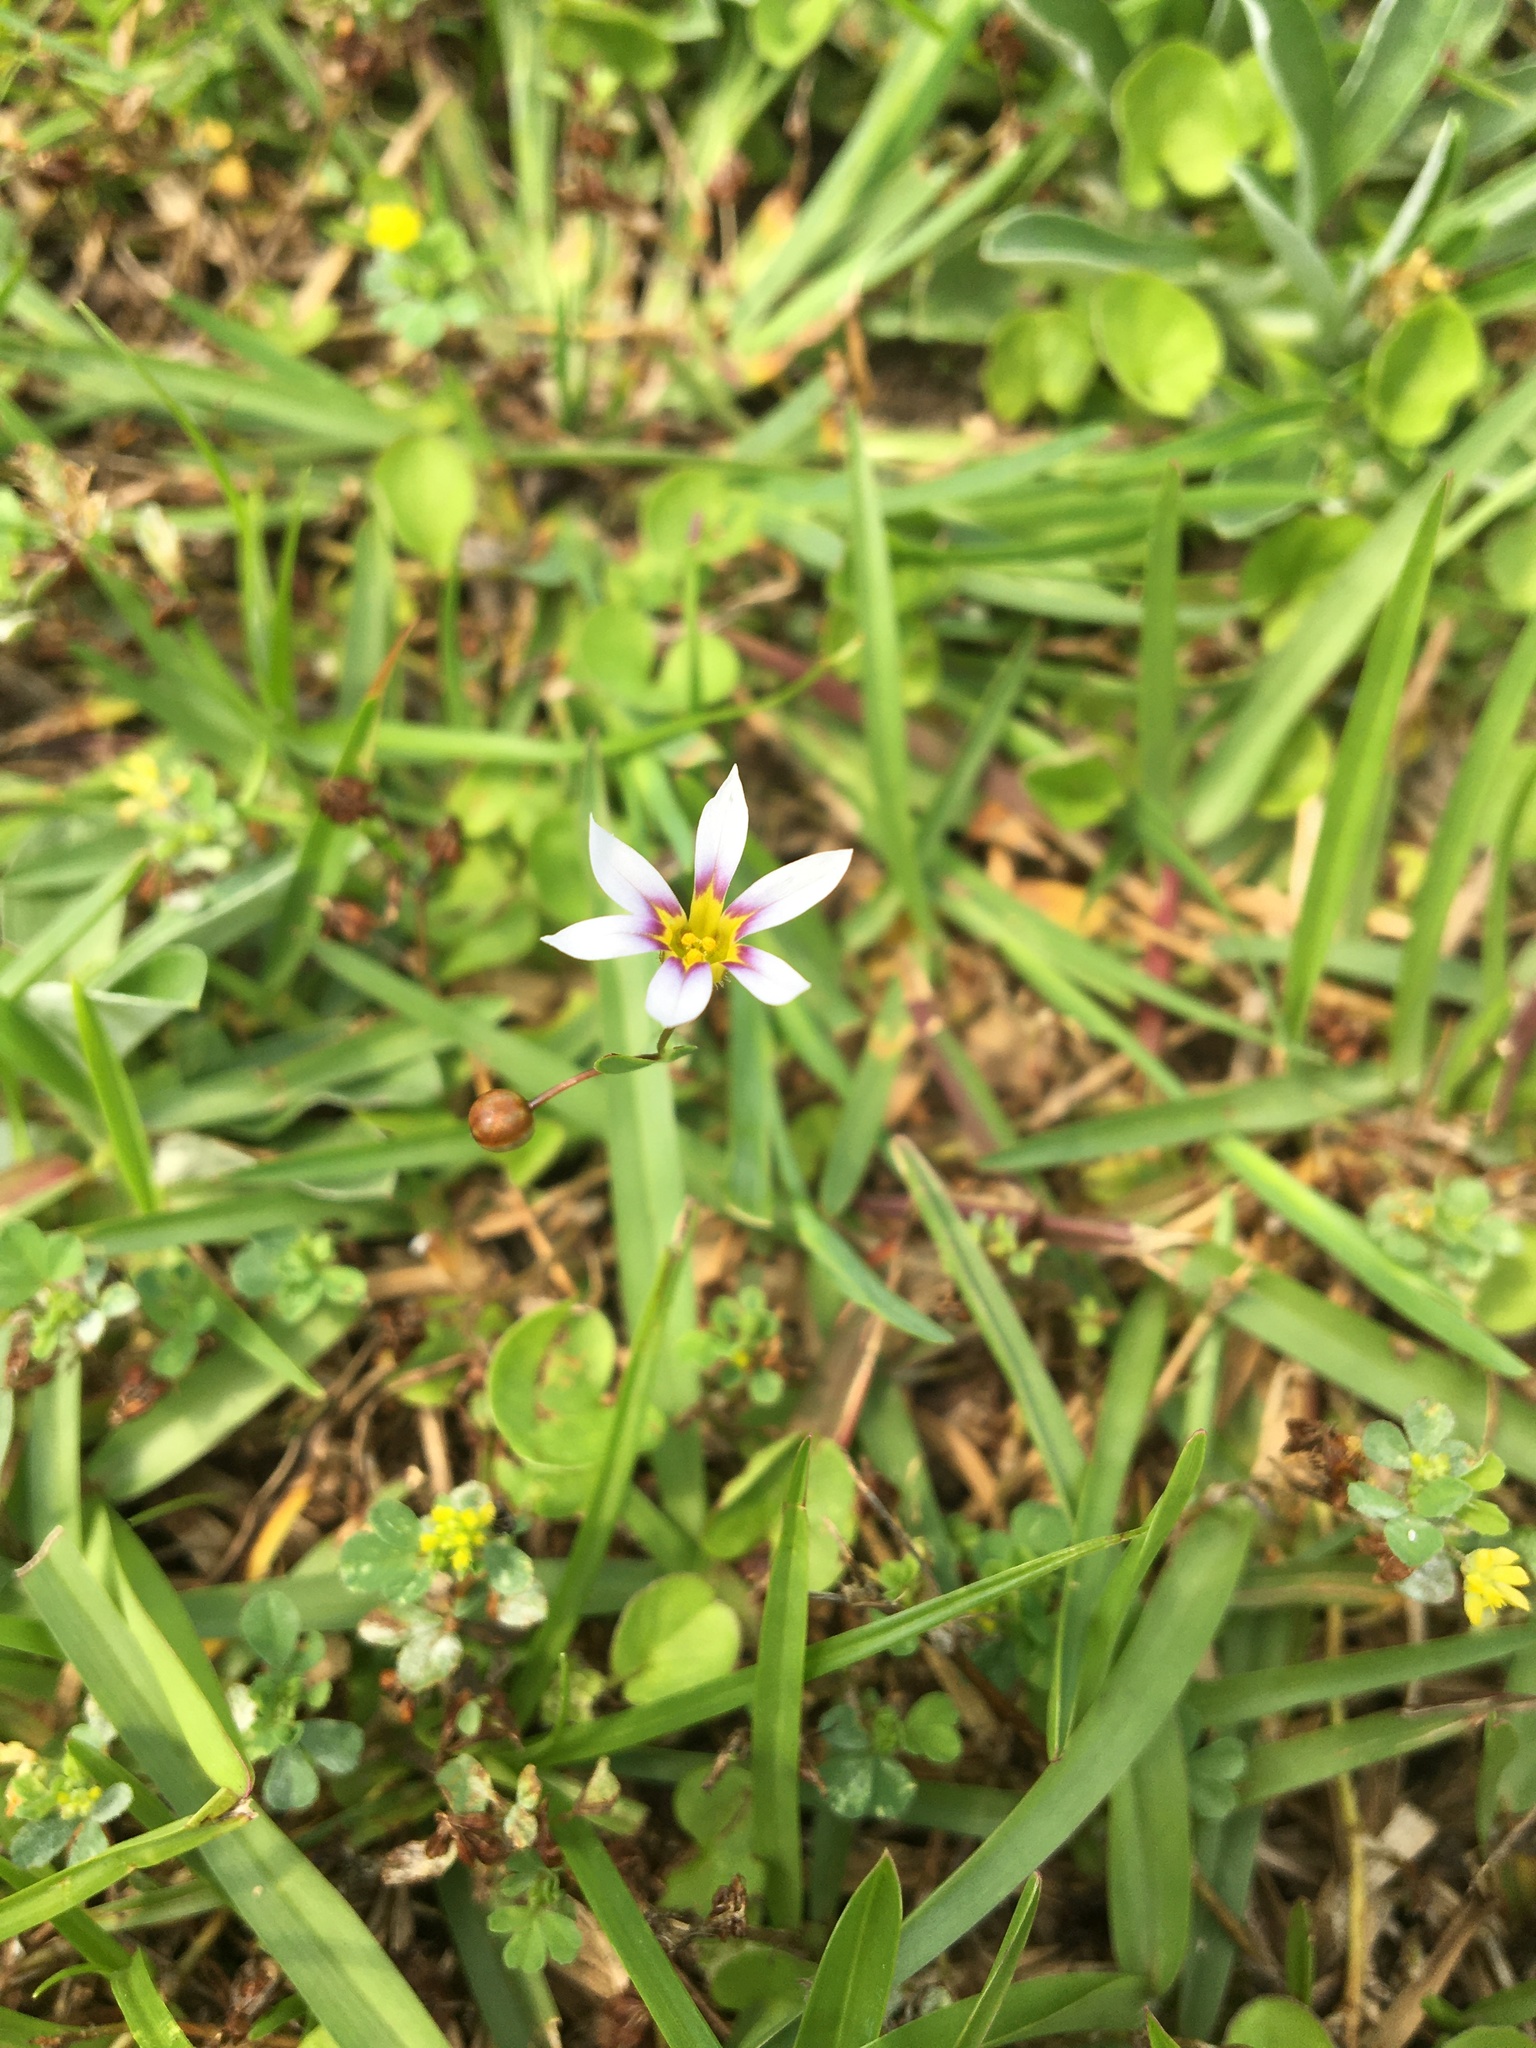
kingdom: Plantae
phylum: Tracheophyta
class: Liliopsida
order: Asparagales
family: Iridaceae
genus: Sisyrinchium
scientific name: Sisyrinchium micranthum
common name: Bermuda pigroot
